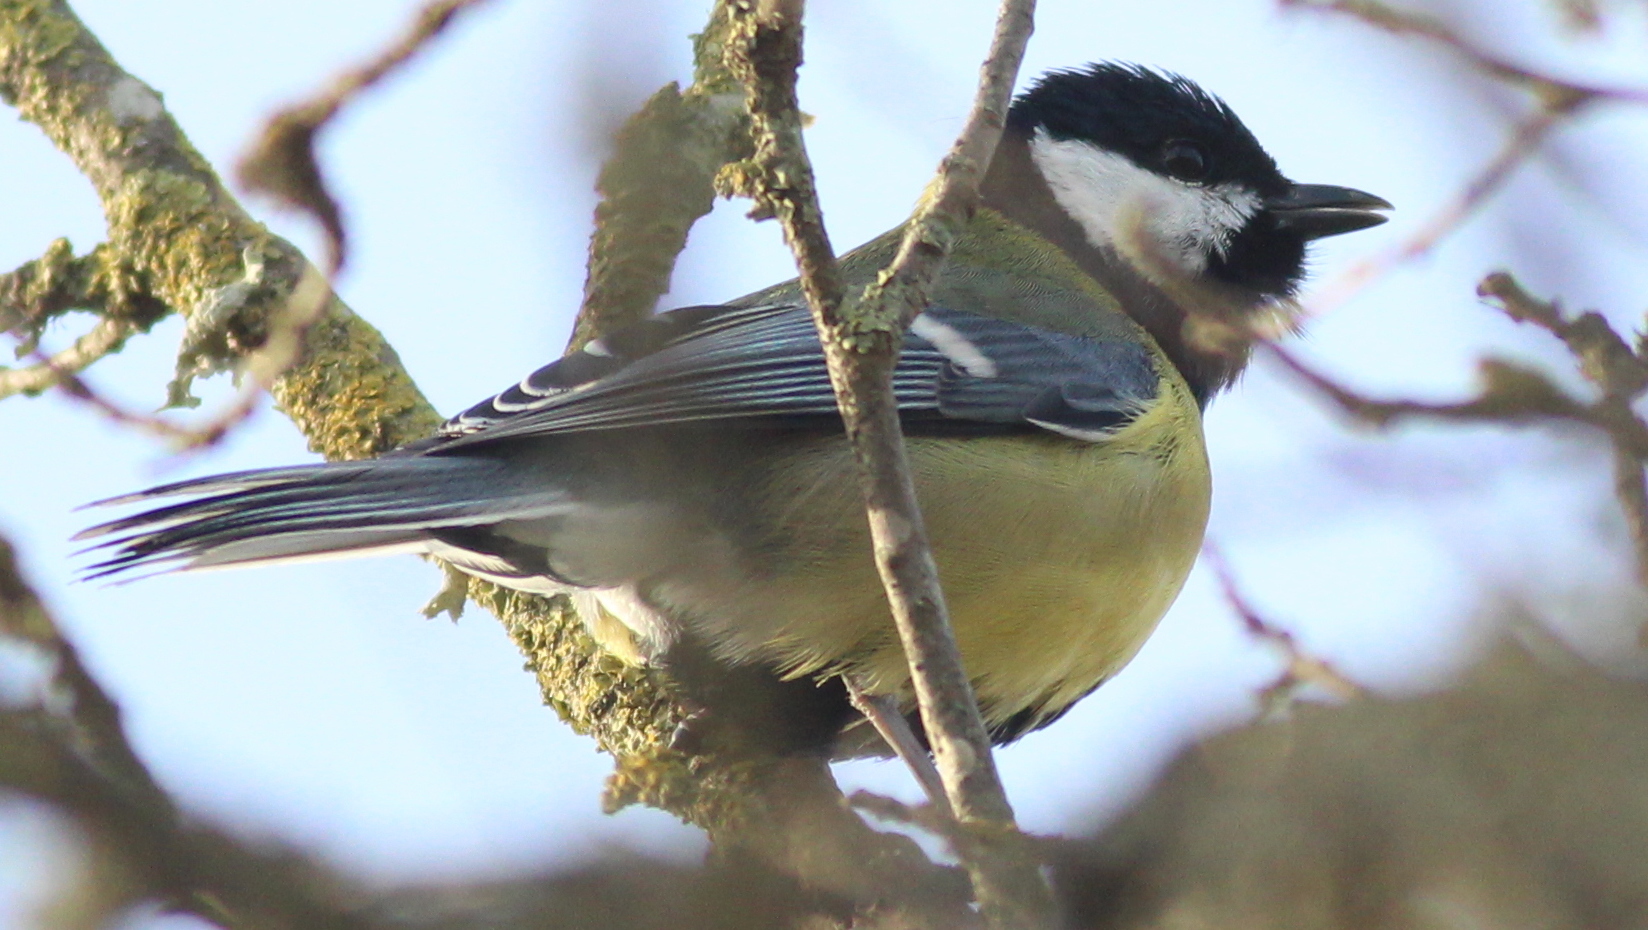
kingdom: Animalia
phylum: Chordata
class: Aves
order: Passeriformes
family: Paridae
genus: Parus
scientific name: Parus major
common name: Great tit
